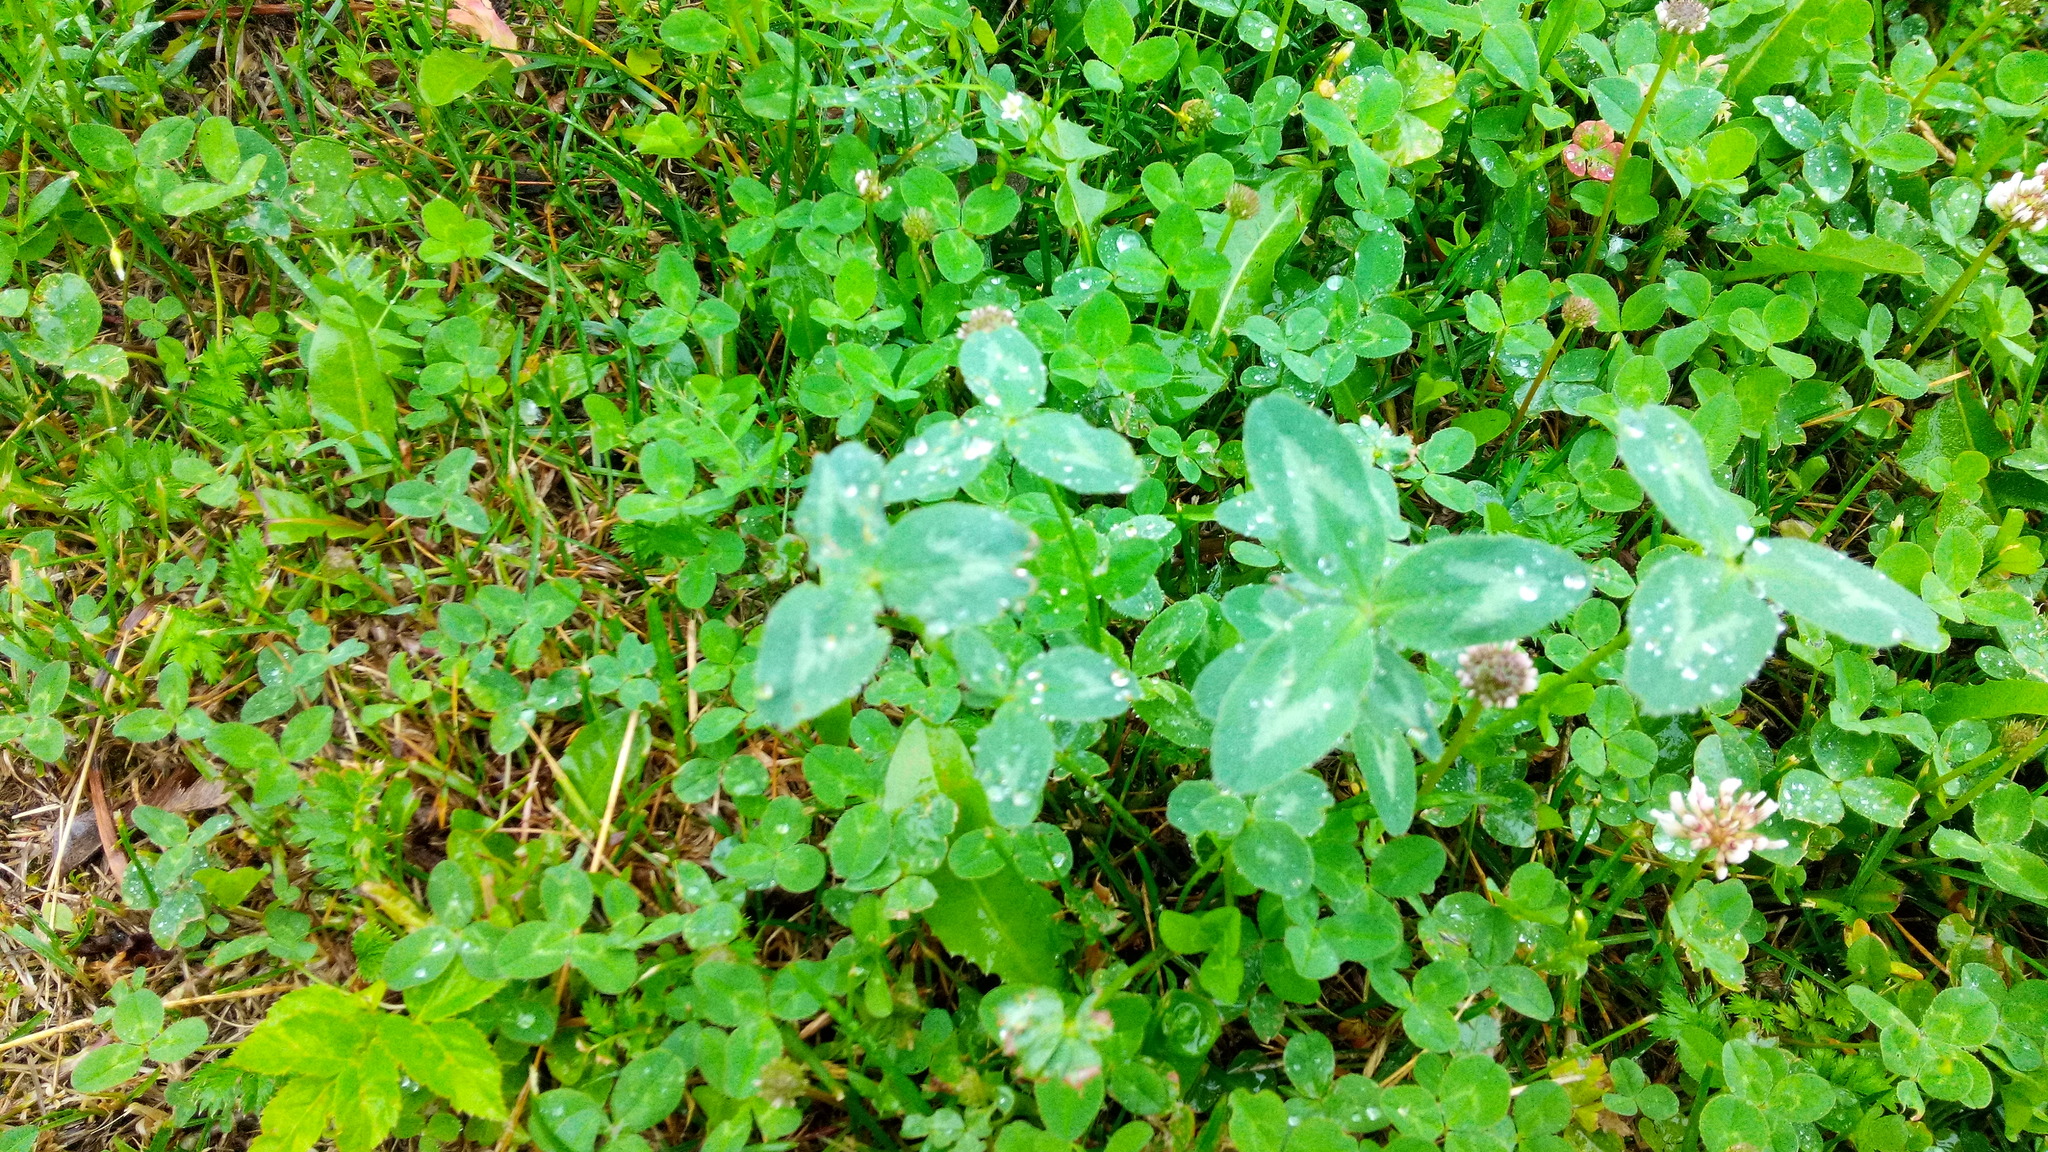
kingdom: Plantae
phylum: Tracheophyta
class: Magnoliopsida
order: Fabales
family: Fabaceae
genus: Trifolium
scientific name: Trifolium pratense
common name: Red clover
